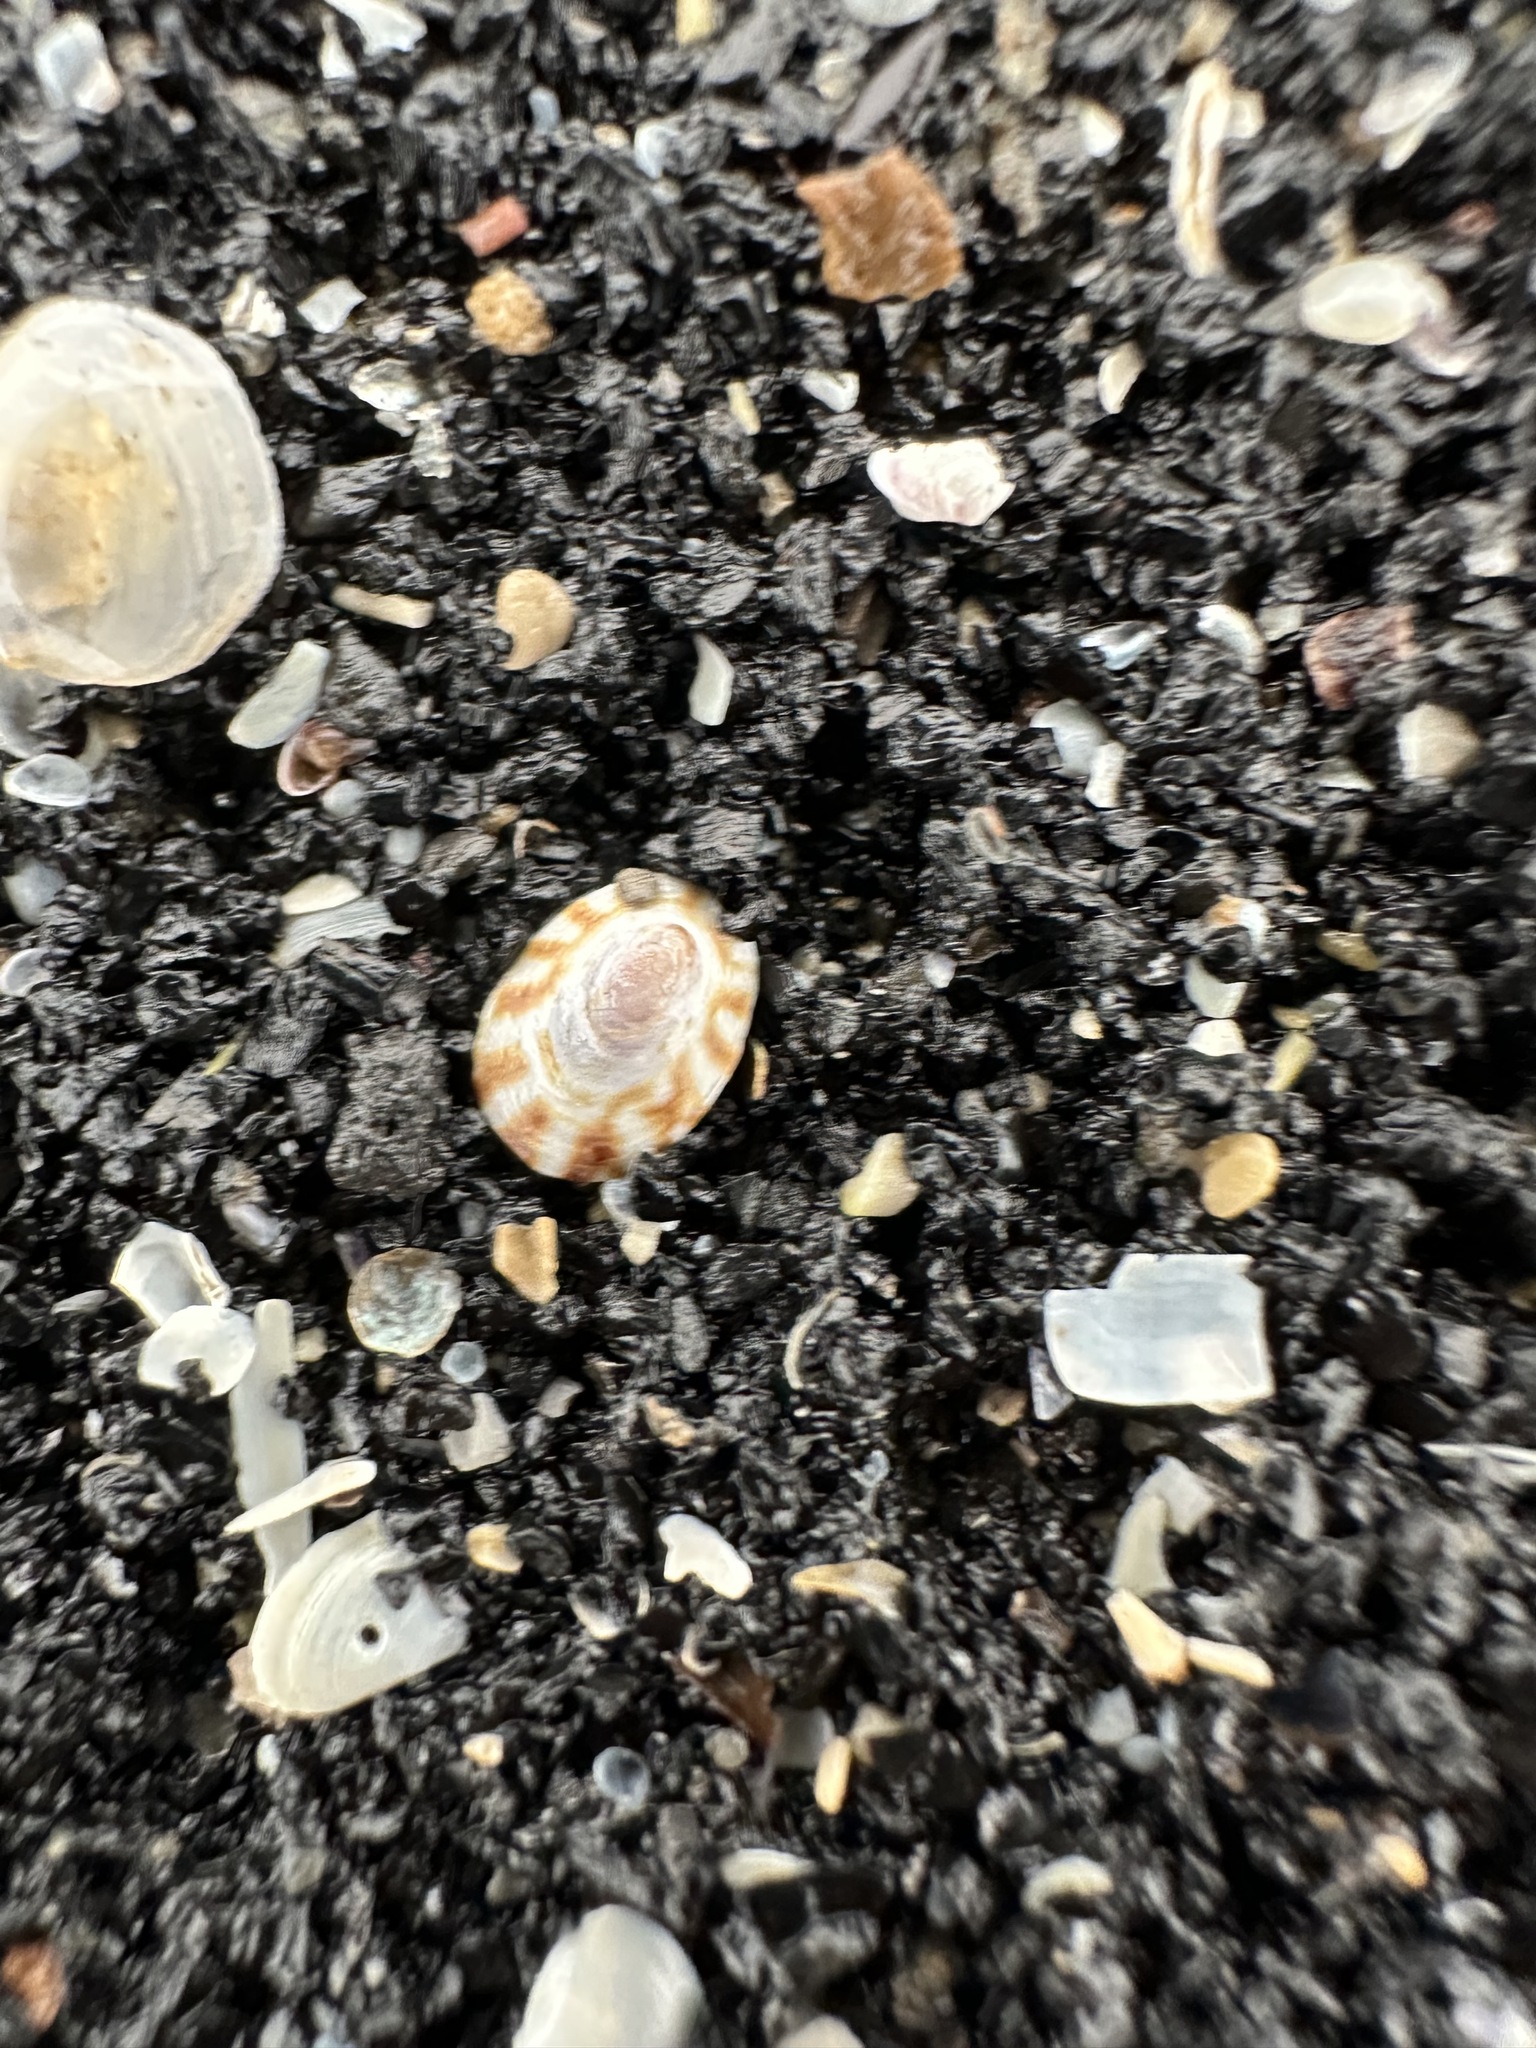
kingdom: Animalia
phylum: Mollusca
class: Gastropoda
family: Lottiidae
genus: Testudinalia
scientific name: Testudinalia testudinalis
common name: Common tortoiseshell limpet
